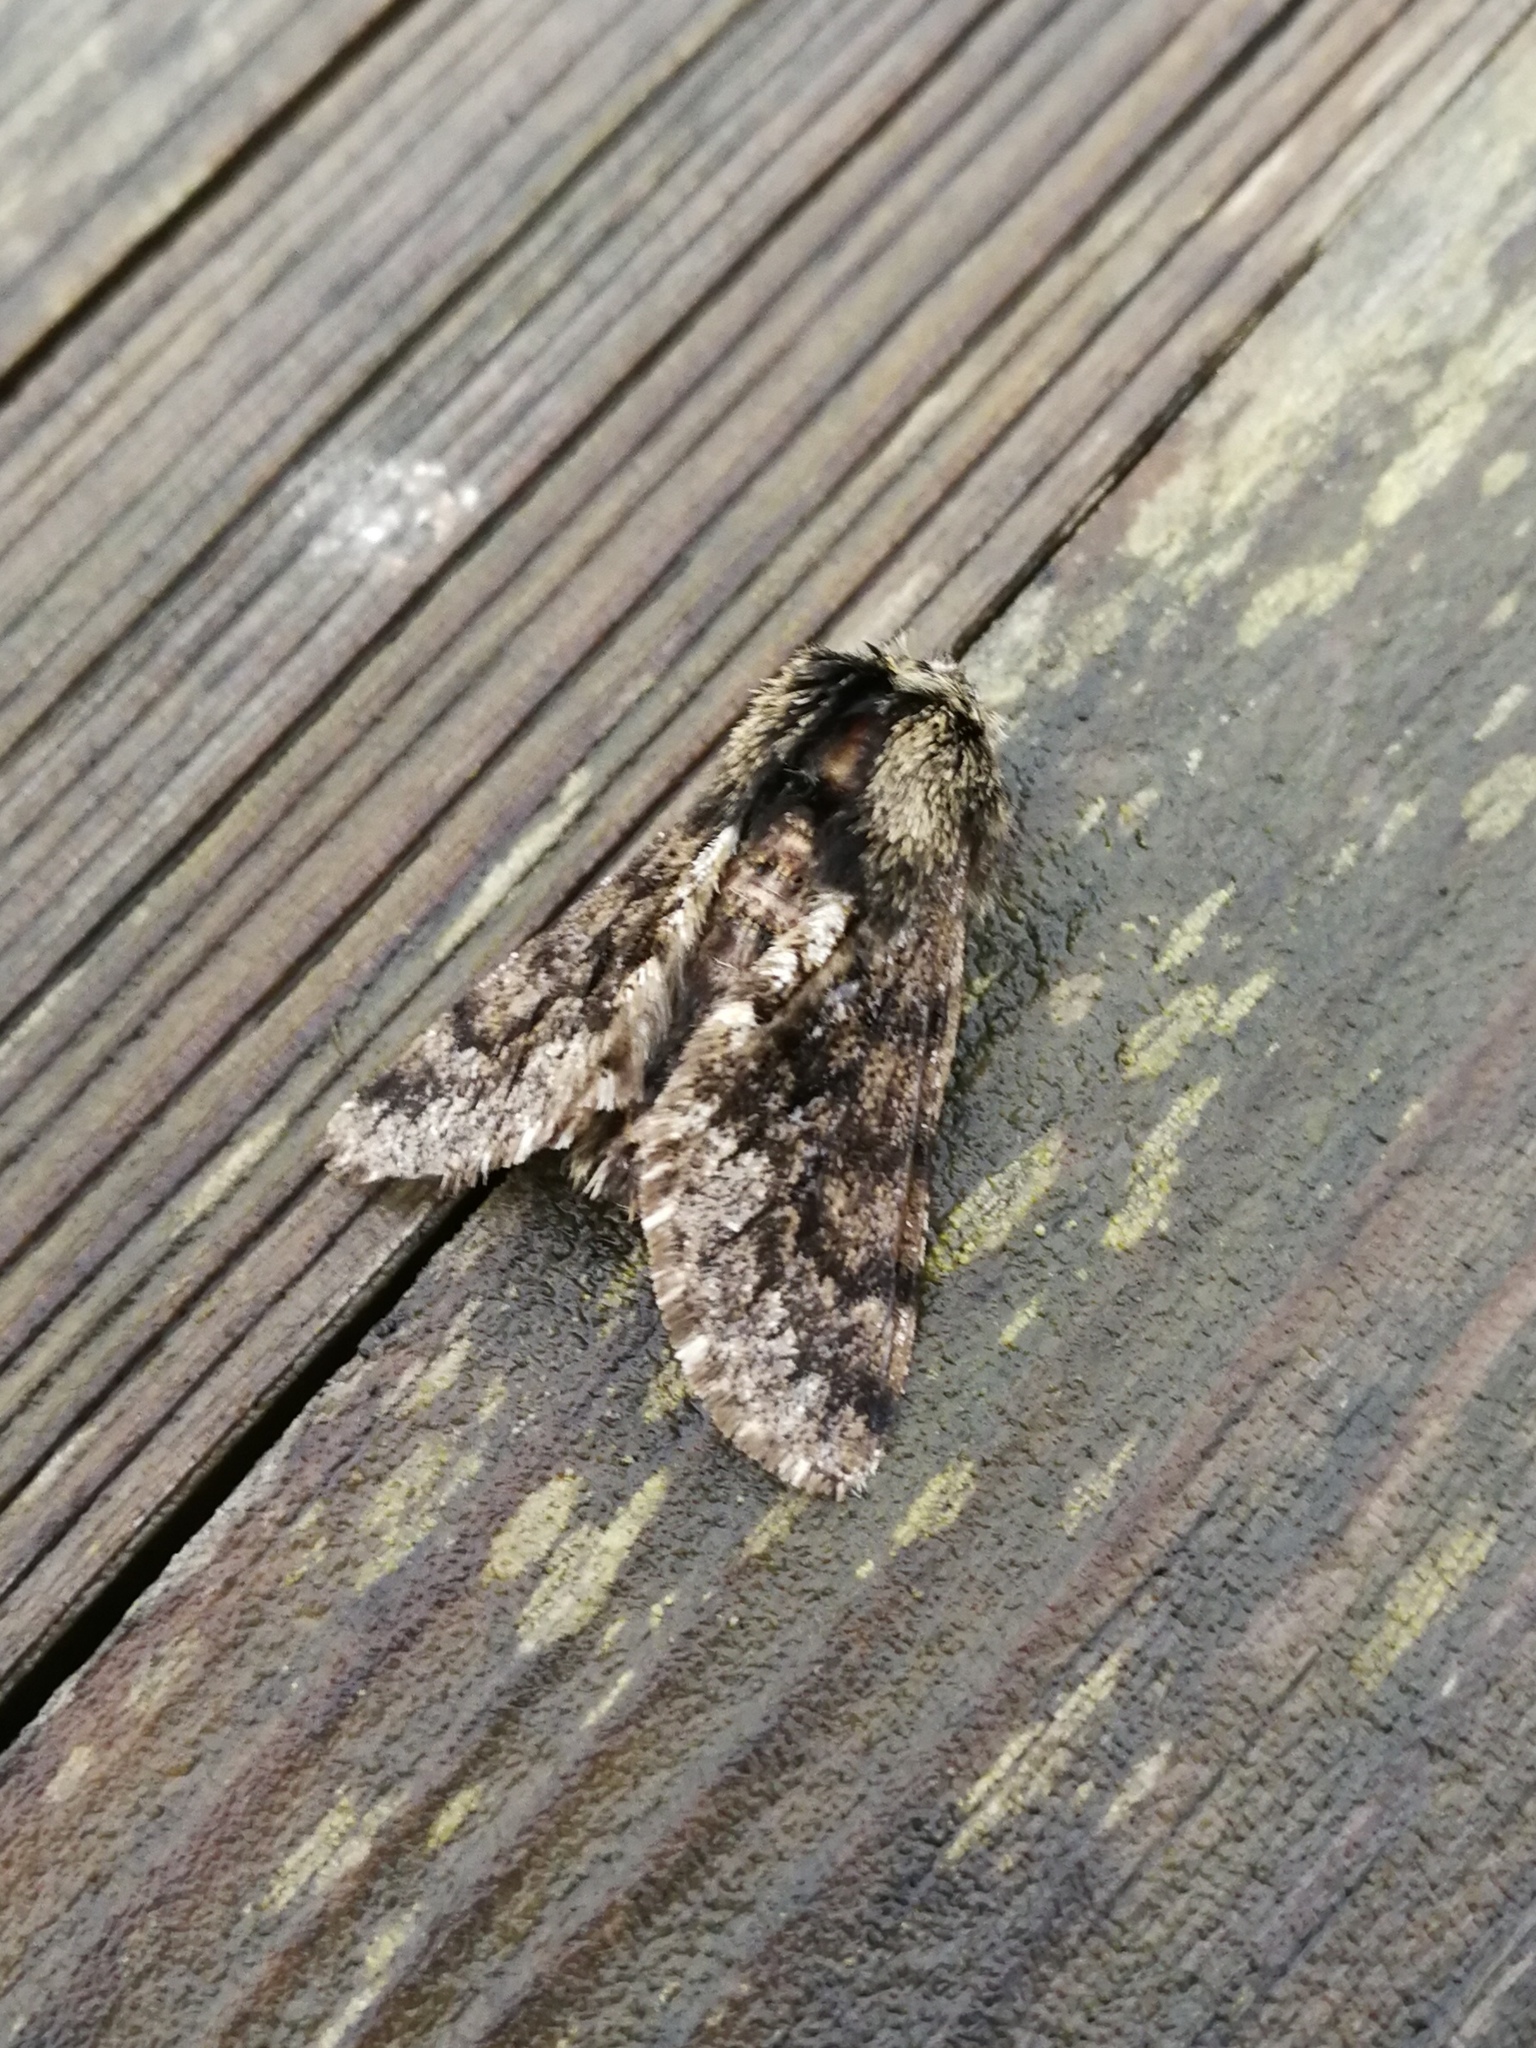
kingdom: Animalia
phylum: Arthropoda
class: Insecta
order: Lepidoptera
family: Geometridae
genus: Apocheima
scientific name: Apocheima hispidaria
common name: Small brindled beauty
